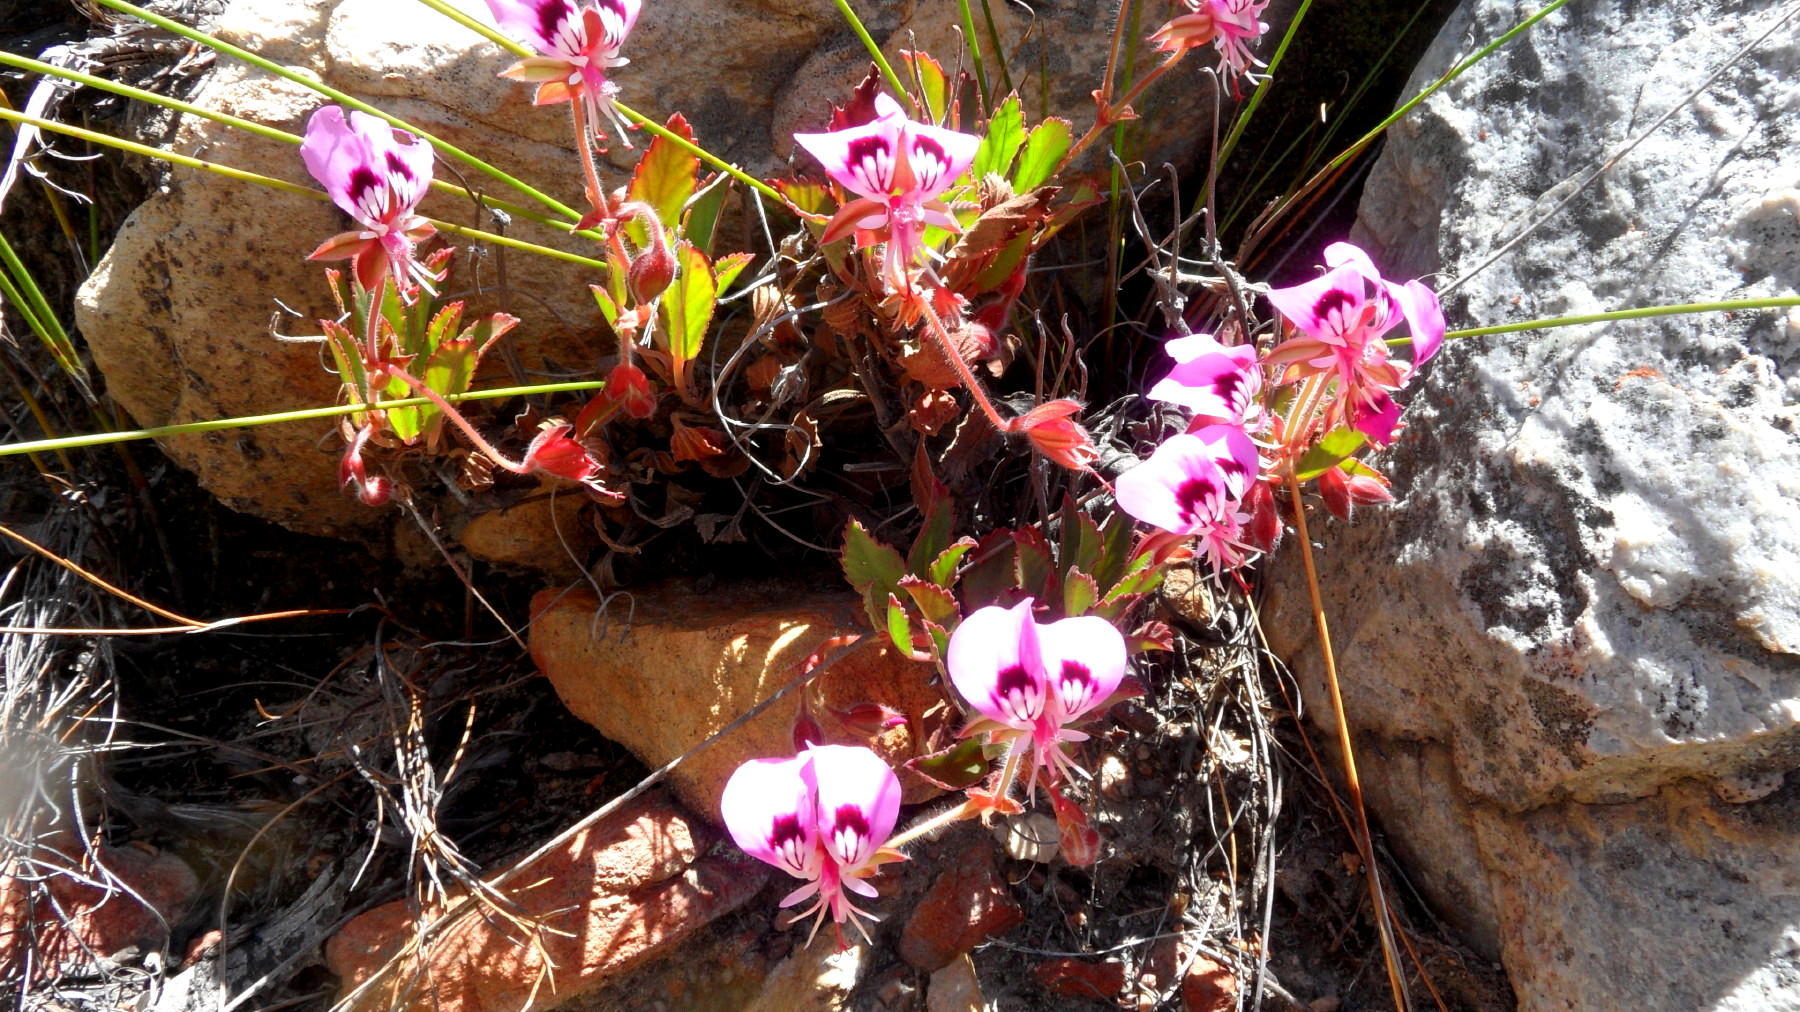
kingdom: Plantae
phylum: Tracheophyta
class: Magnoliopsida
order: Geraniales
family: Geraniaceae
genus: Pelargonium
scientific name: Pelargonium ovale
